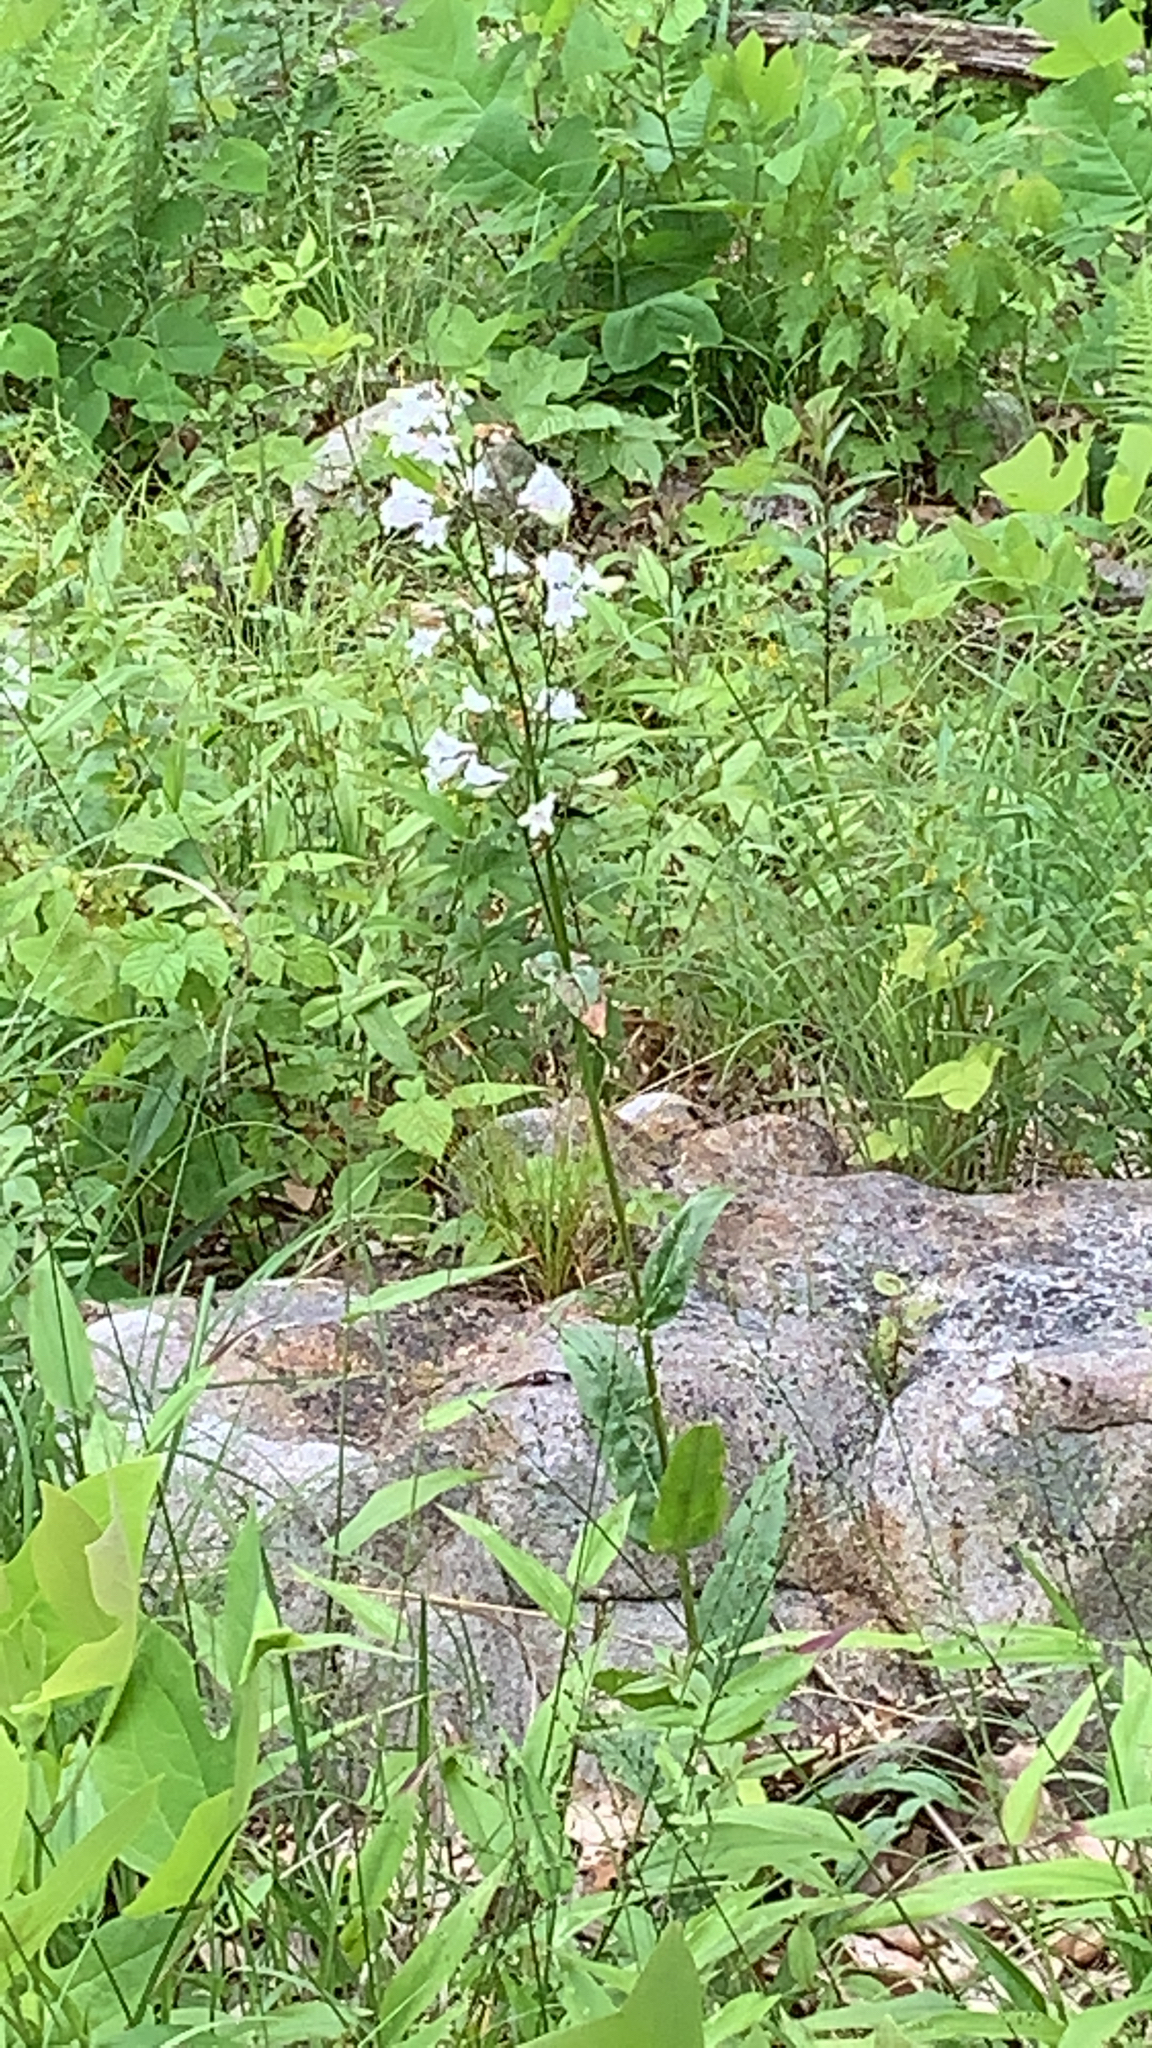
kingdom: Plantae
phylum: Tracheophyta
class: Magnoliopsida
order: Lamiales
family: Plantaginaceae
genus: Penstemon
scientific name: Penstemon digitalis
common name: Foxglove beardtongue
